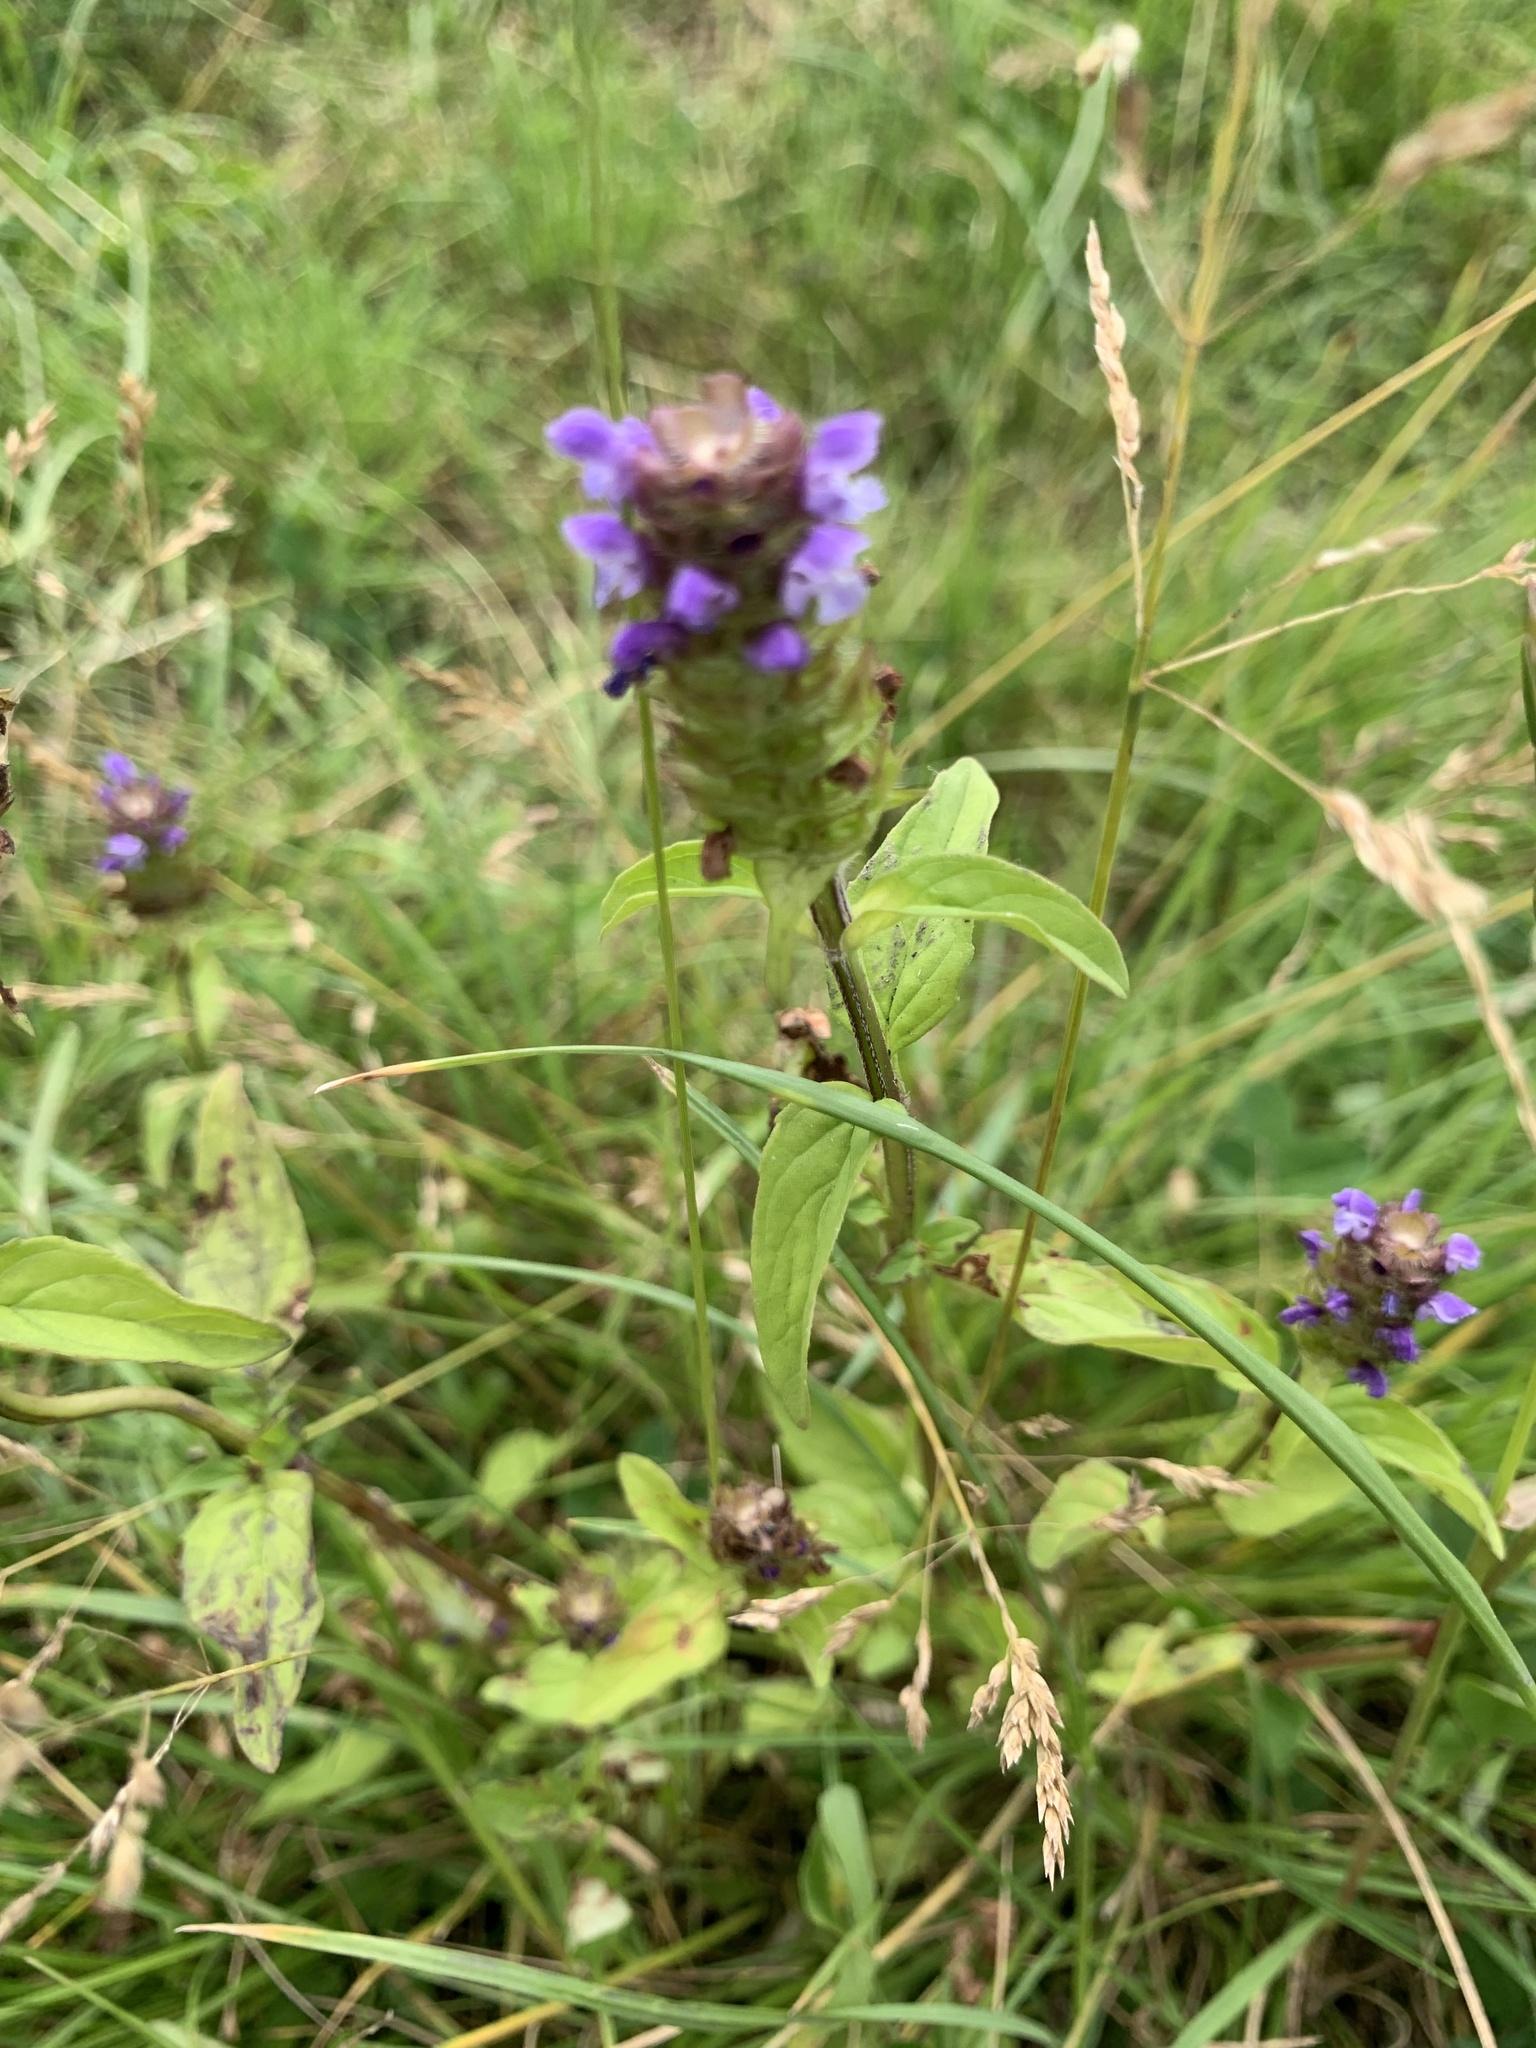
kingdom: Plantae
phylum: Tracheophyta
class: Magnoliopsida
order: Lamiales
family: Lamiaceae
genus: Prunella
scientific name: Prunella vulgaris
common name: Heal-all
